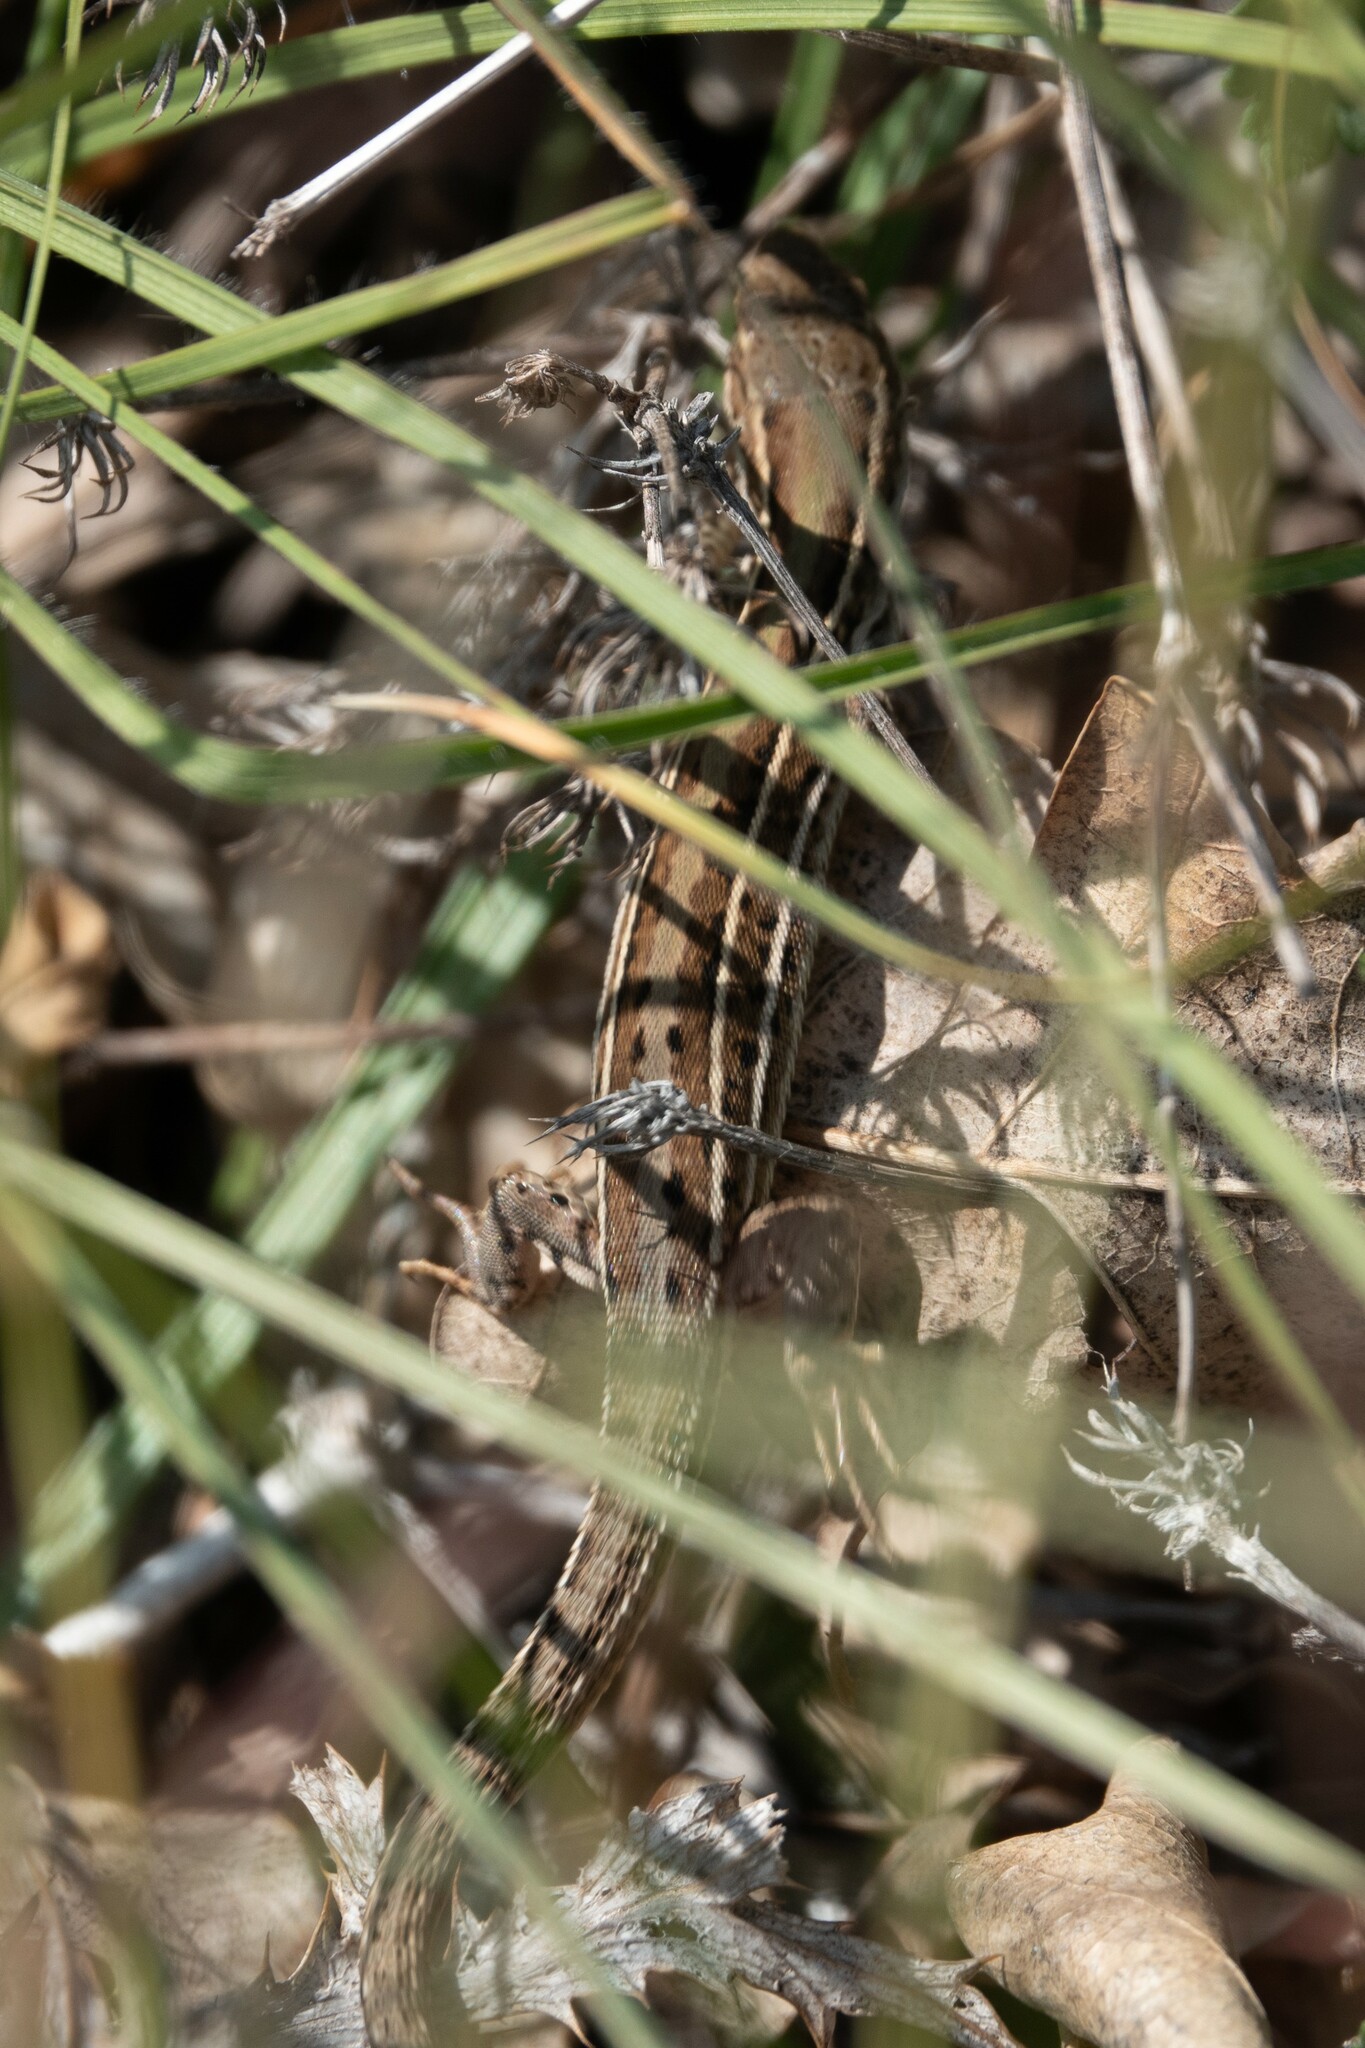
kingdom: Animalia
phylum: Chordata
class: Squamata
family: Lacertidae
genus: Podarcis
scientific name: Podarcis tauricus
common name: Balkan wall lizard
